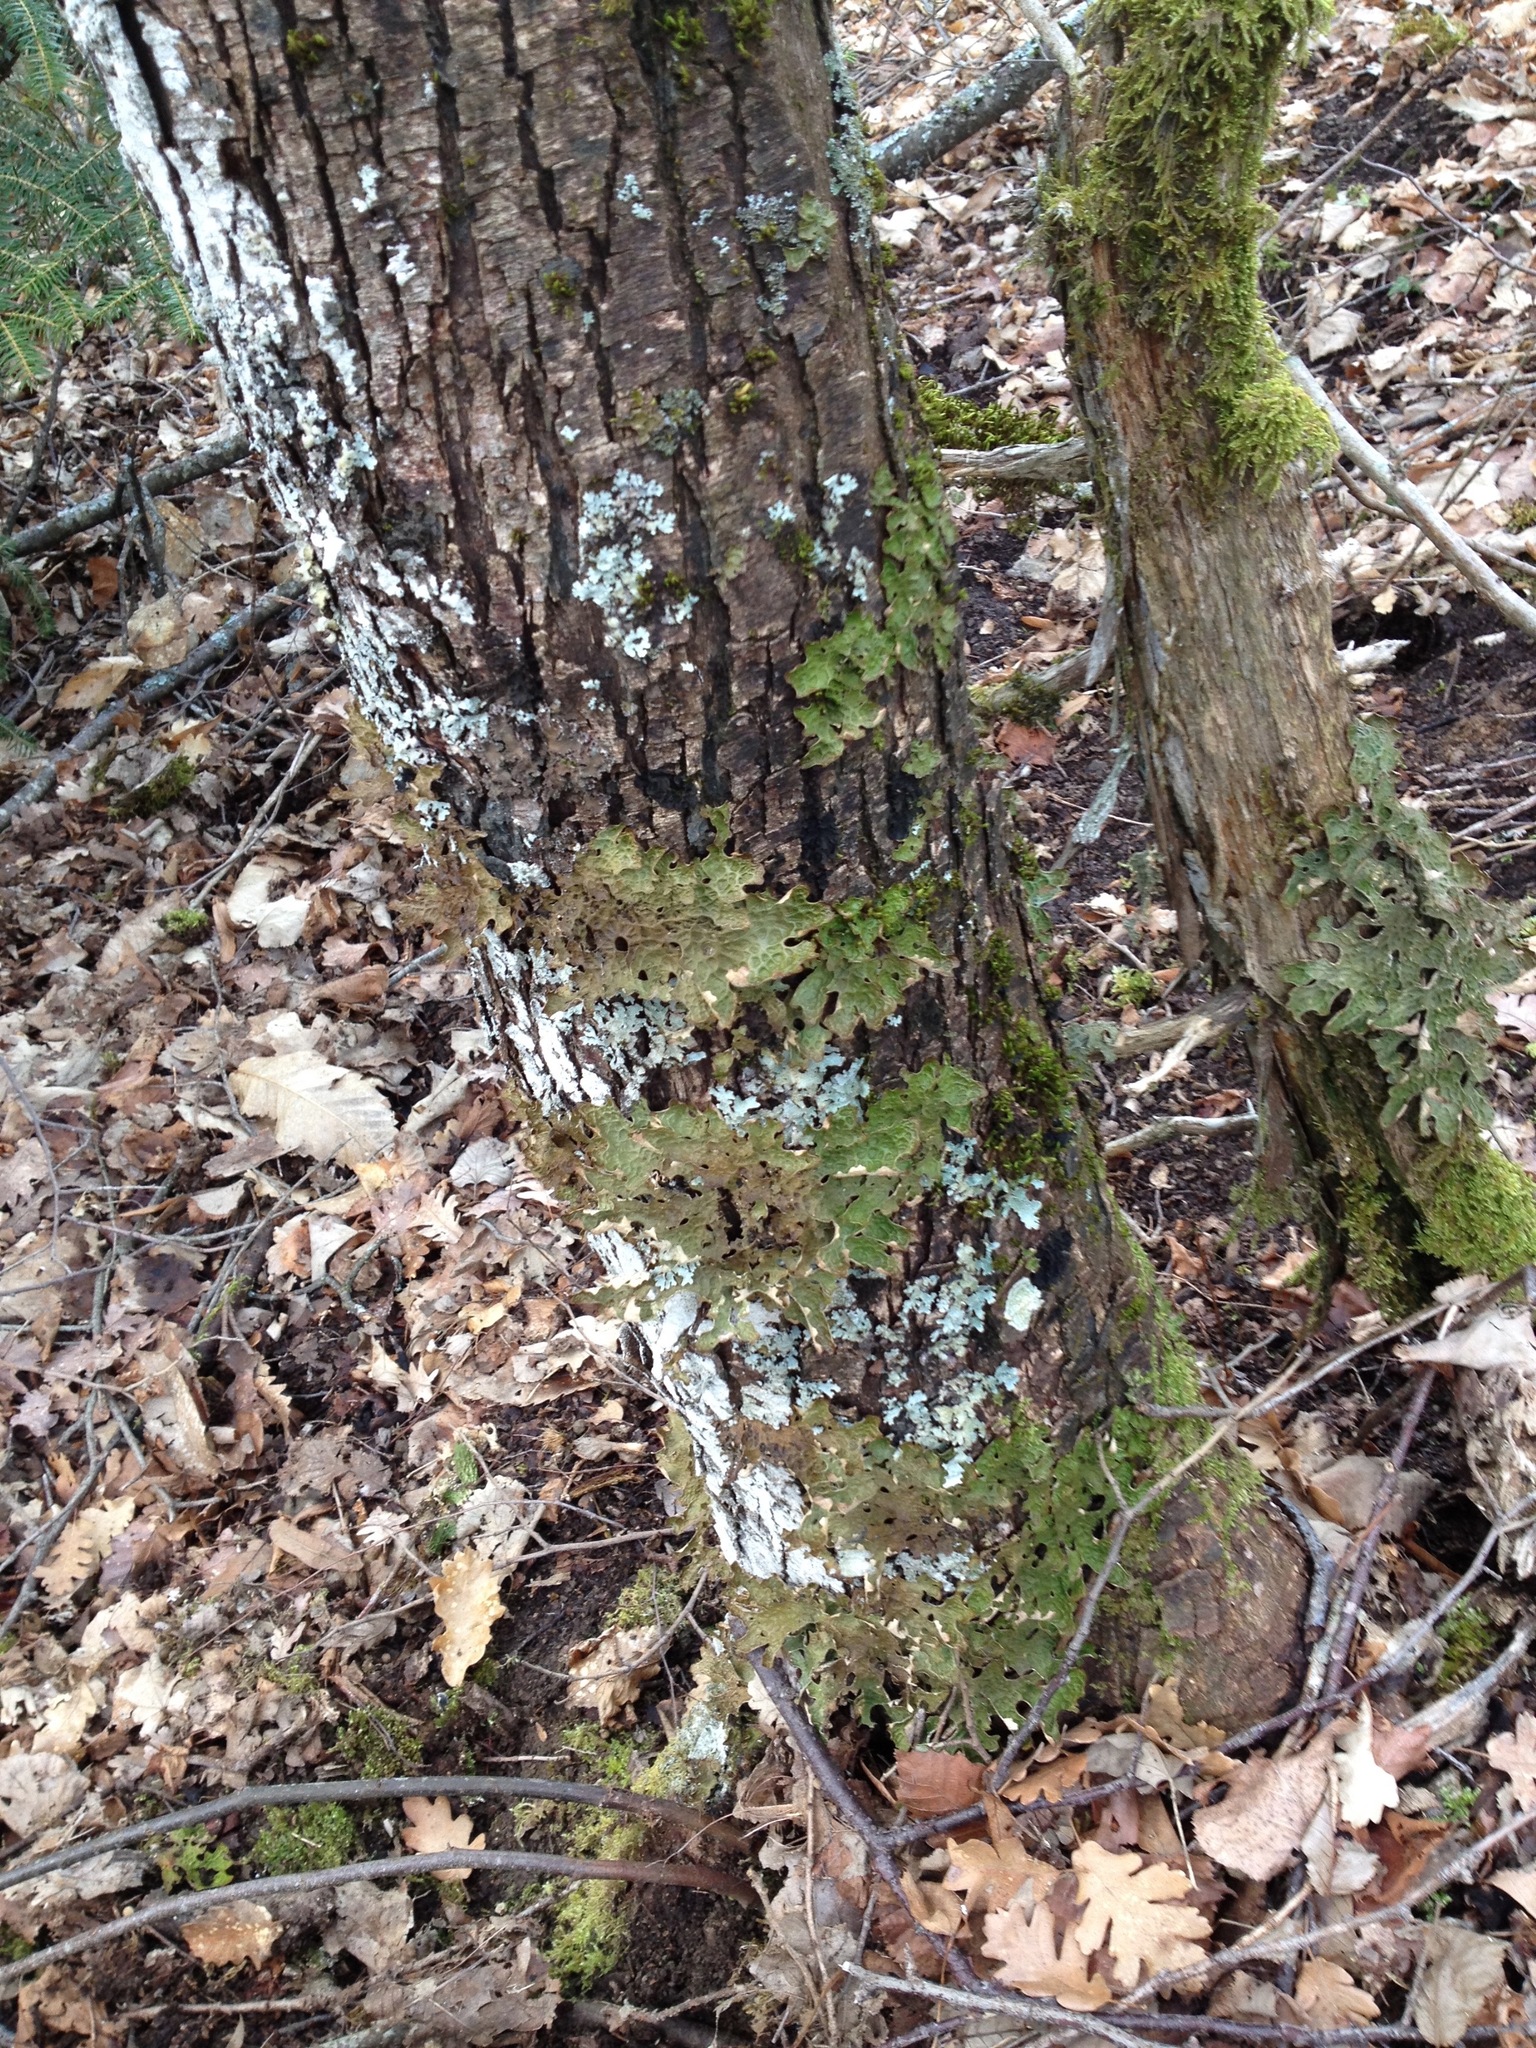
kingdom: Fungi
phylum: Ascomycota
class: Lecanoromycetes
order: Peltigerales
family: Lobariaceae
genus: Lobaria
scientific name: Lobaria pulmonaria
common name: Lungwort
